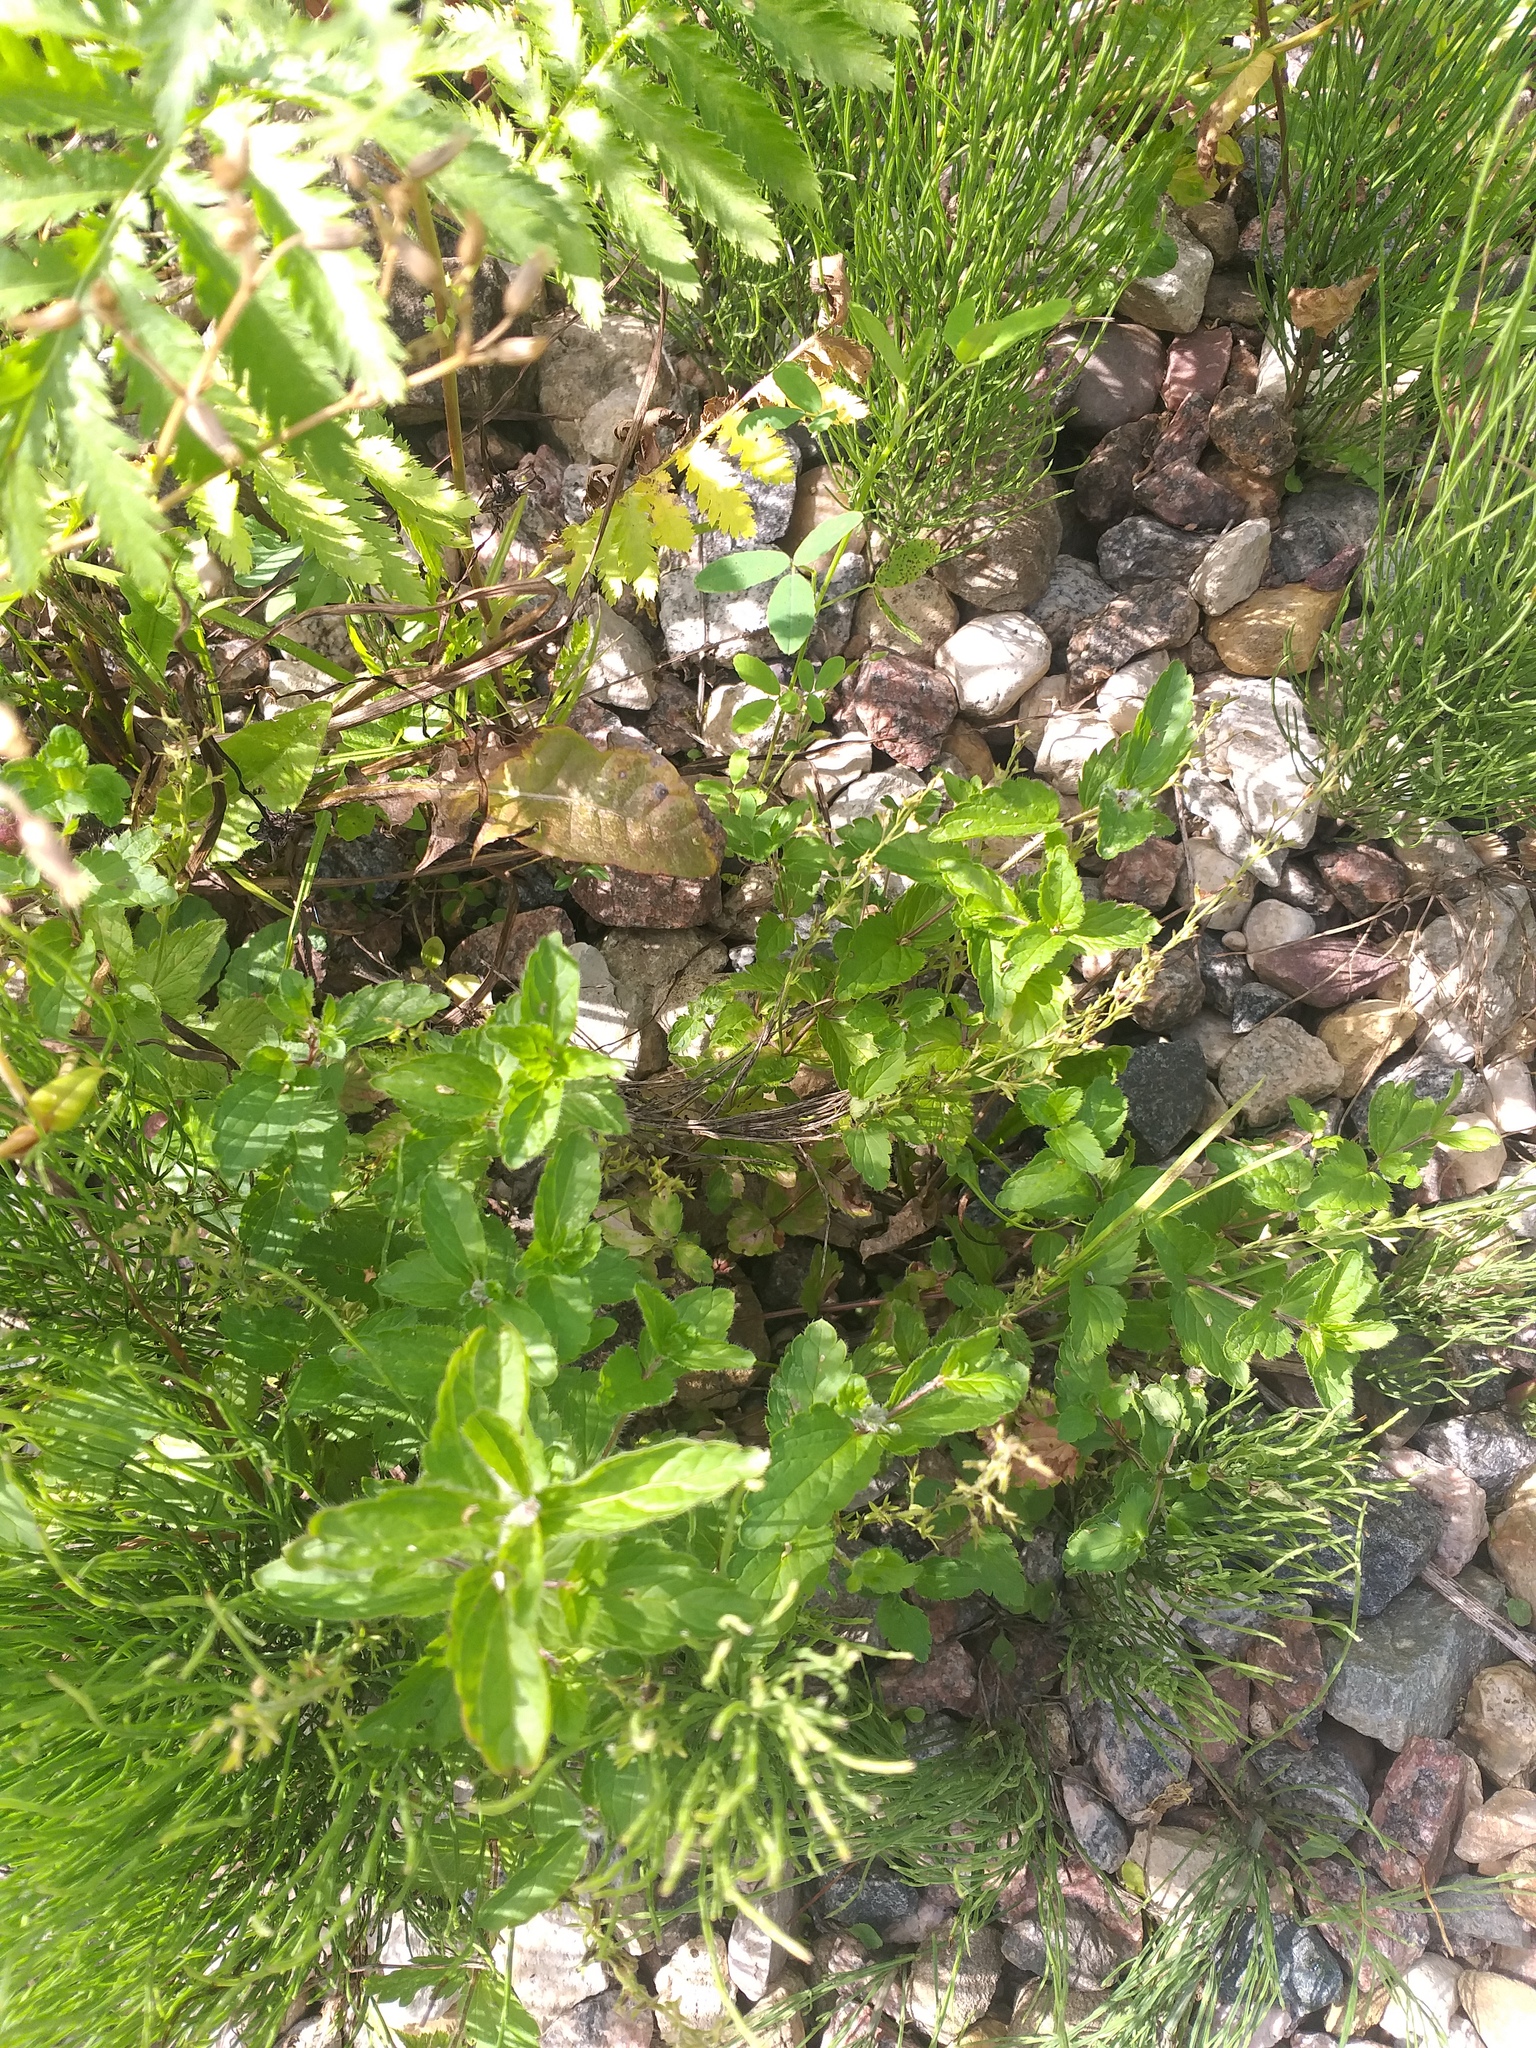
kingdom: Plantae
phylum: Tracheophyta
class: Magnoliopsida
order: Lamiales
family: Plantaginaceae
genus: Veronica
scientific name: Veronica chamaedrys
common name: Germander speedwell
